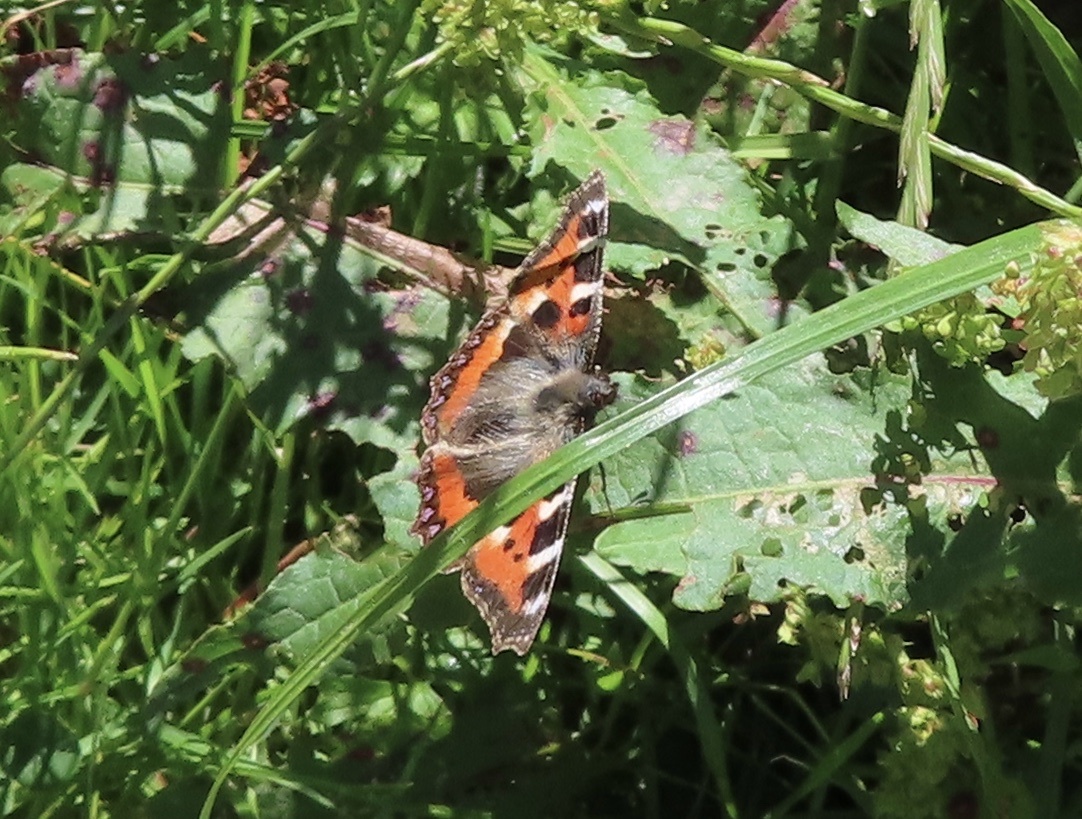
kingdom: Animalia
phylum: Arthropoda
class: Insecta
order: Lepidoptera
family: Nymphalidae
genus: Aglais
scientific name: Aglais urticae
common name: Small tortoiseshell
